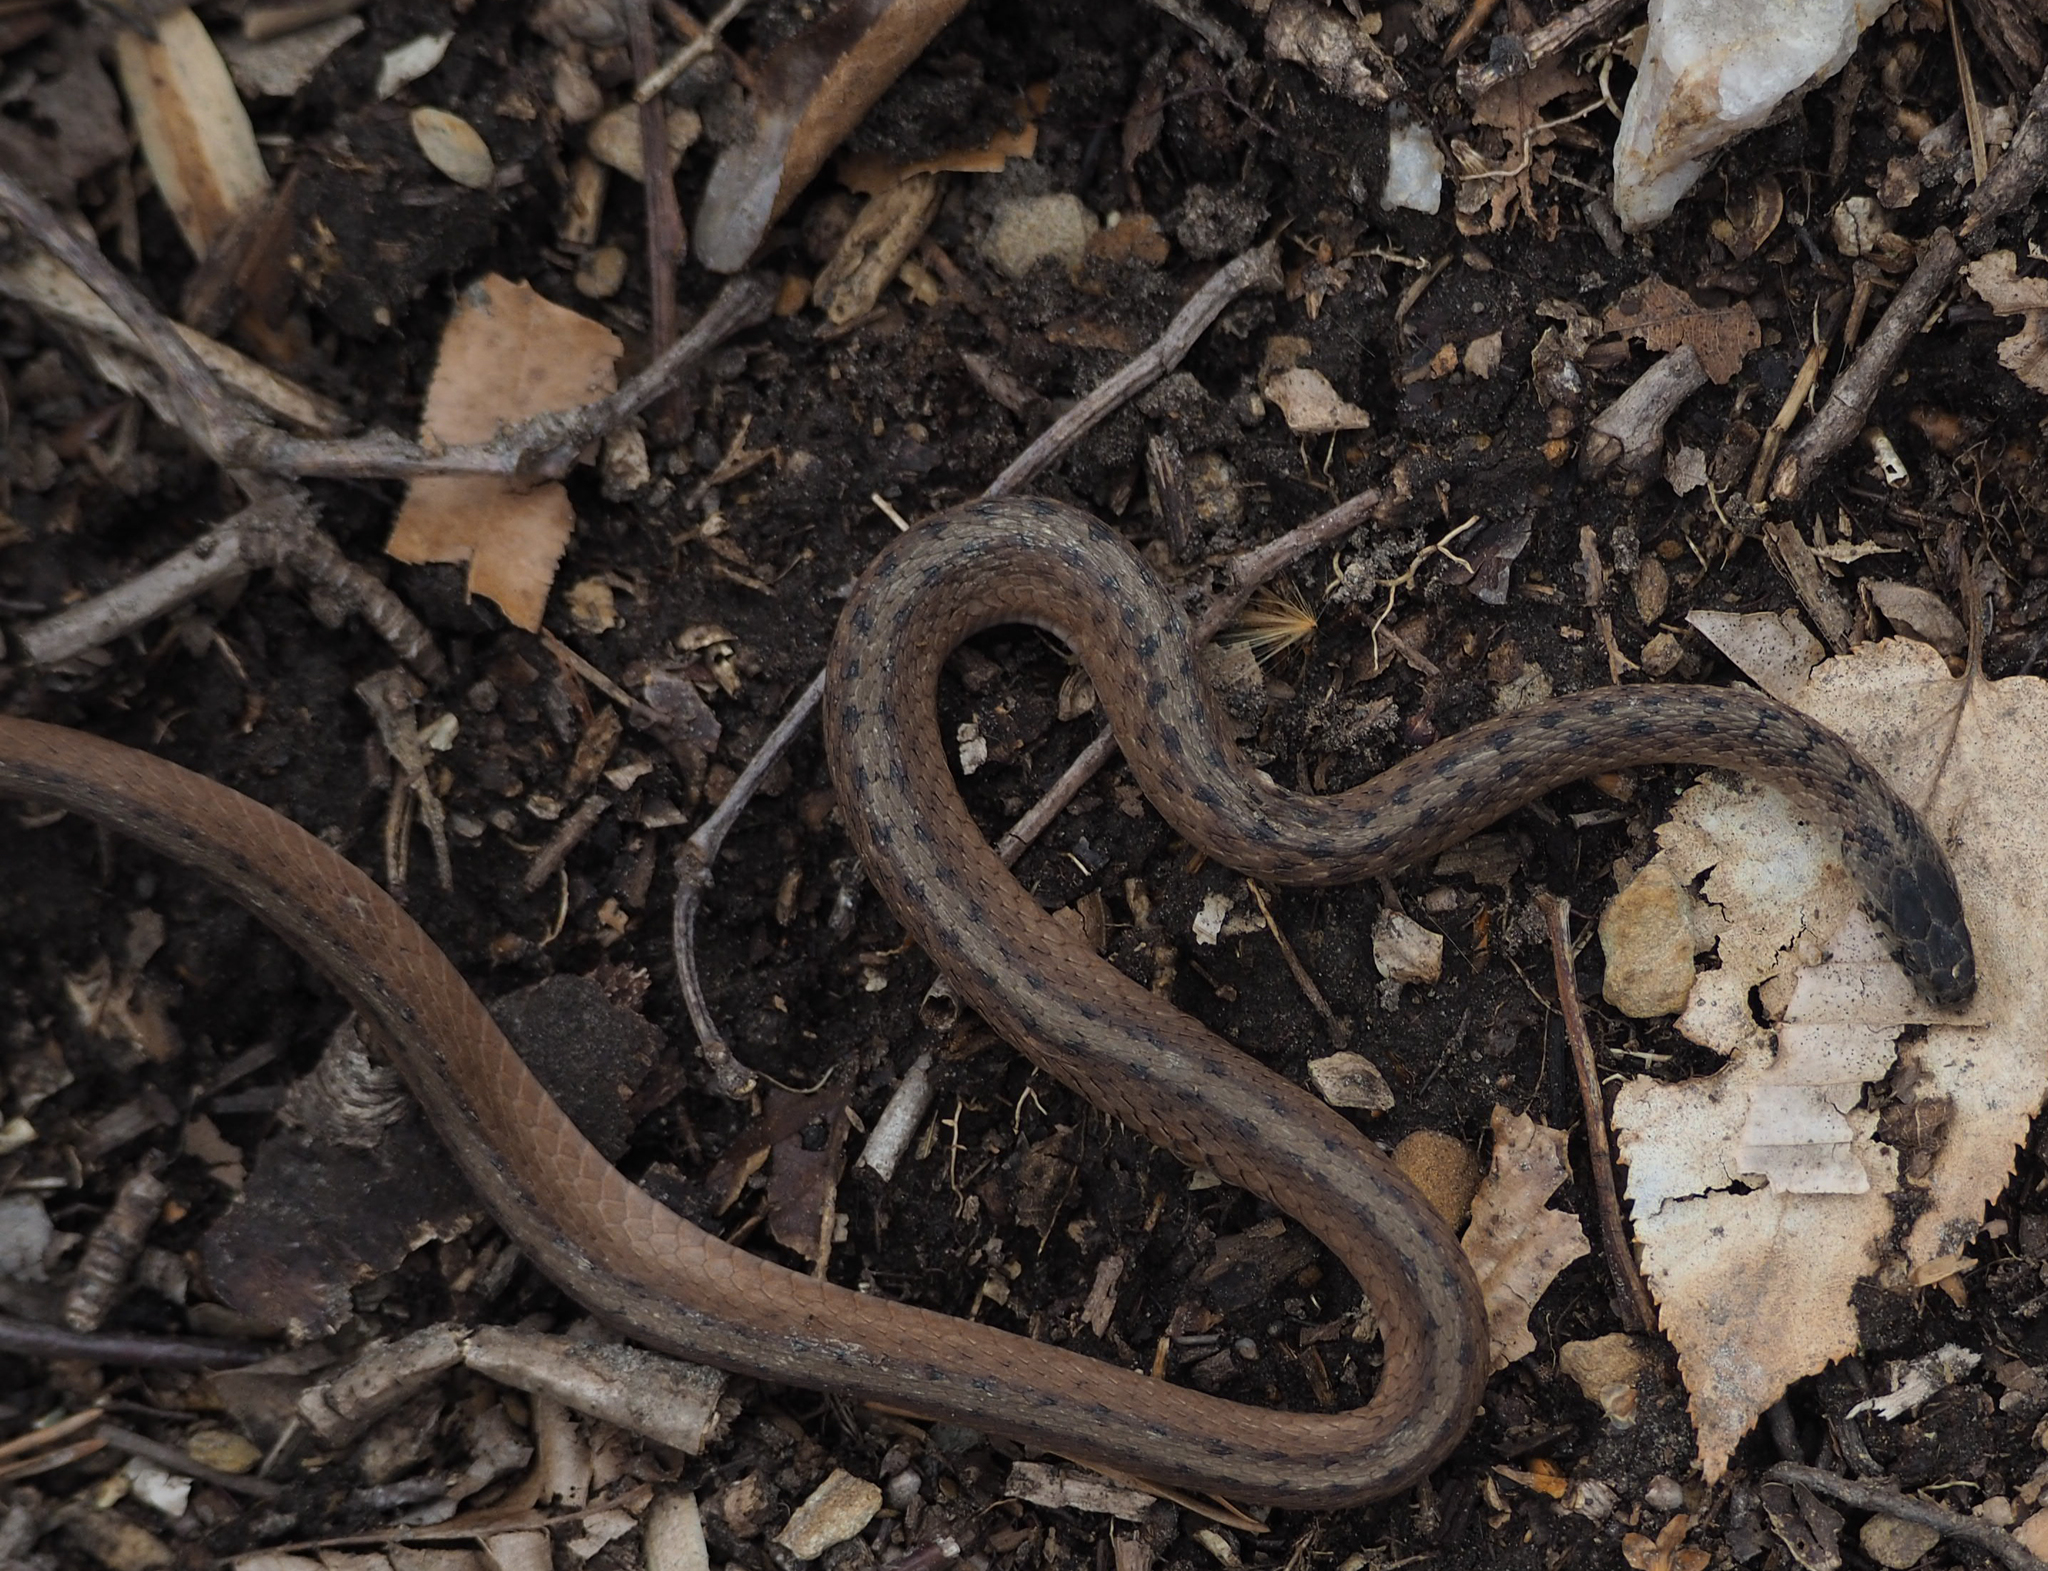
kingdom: Animalia
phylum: Chordata
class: Squamata
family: Colubridae
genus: Storeria
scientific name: Storeria dekayi
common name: (dekay’s) brown snake
